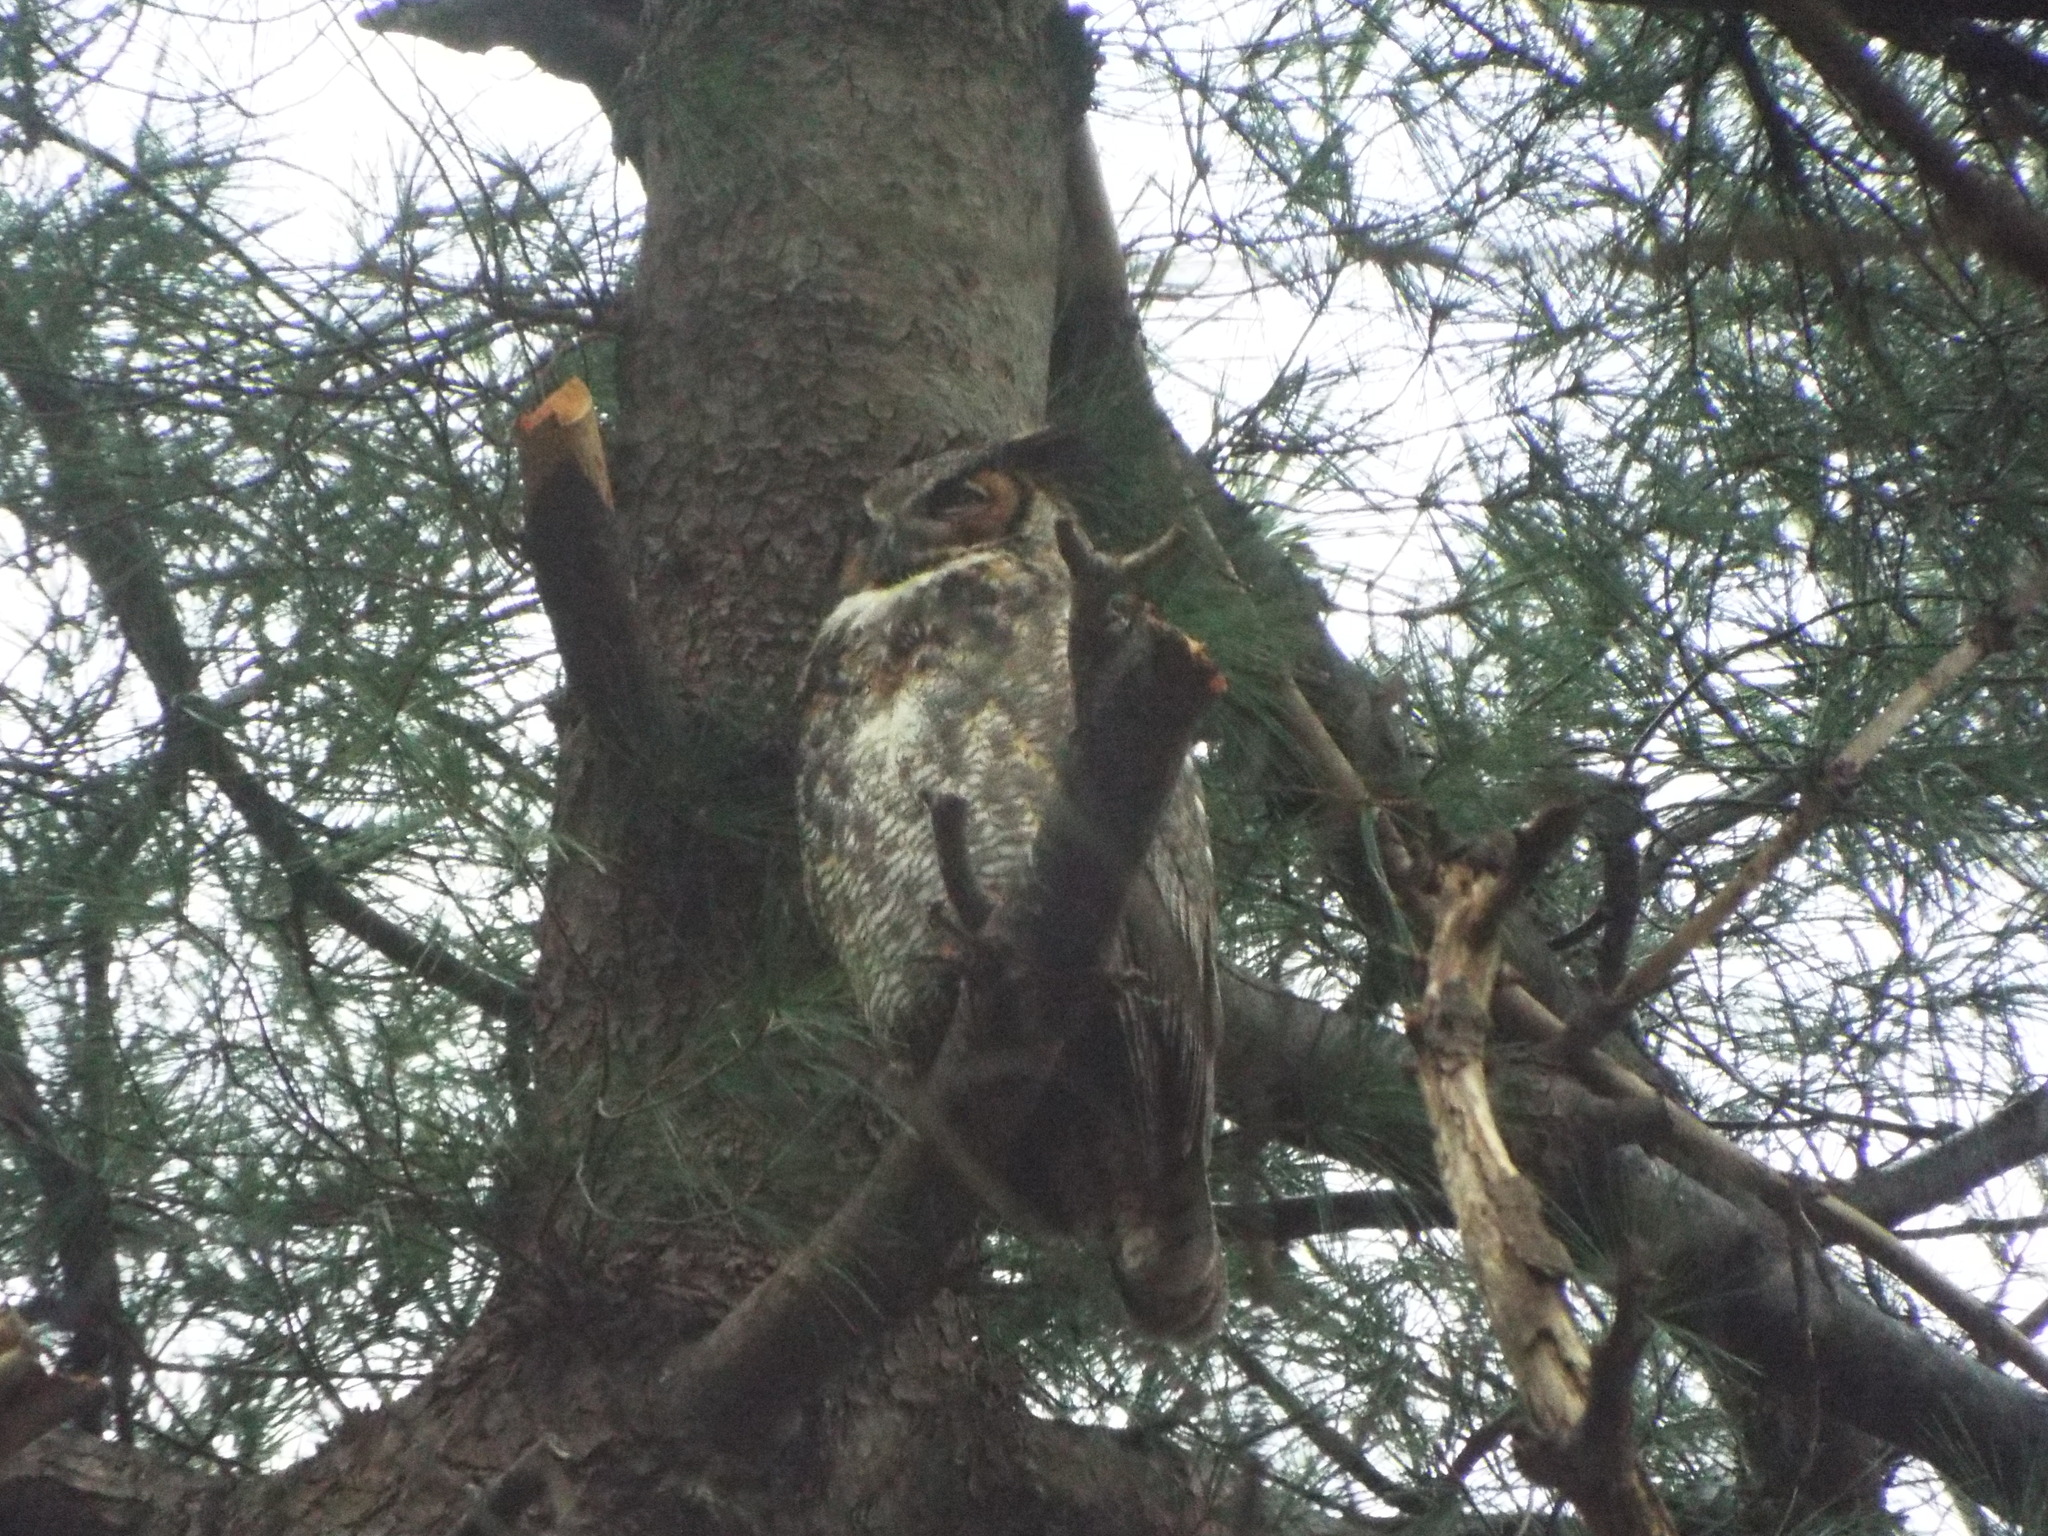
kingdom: Animalia
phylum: Chordata
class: Aves
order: Strigiformes
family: Strigidae
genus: Bubo
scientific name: Bubo virginianus
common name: Great horned owl
